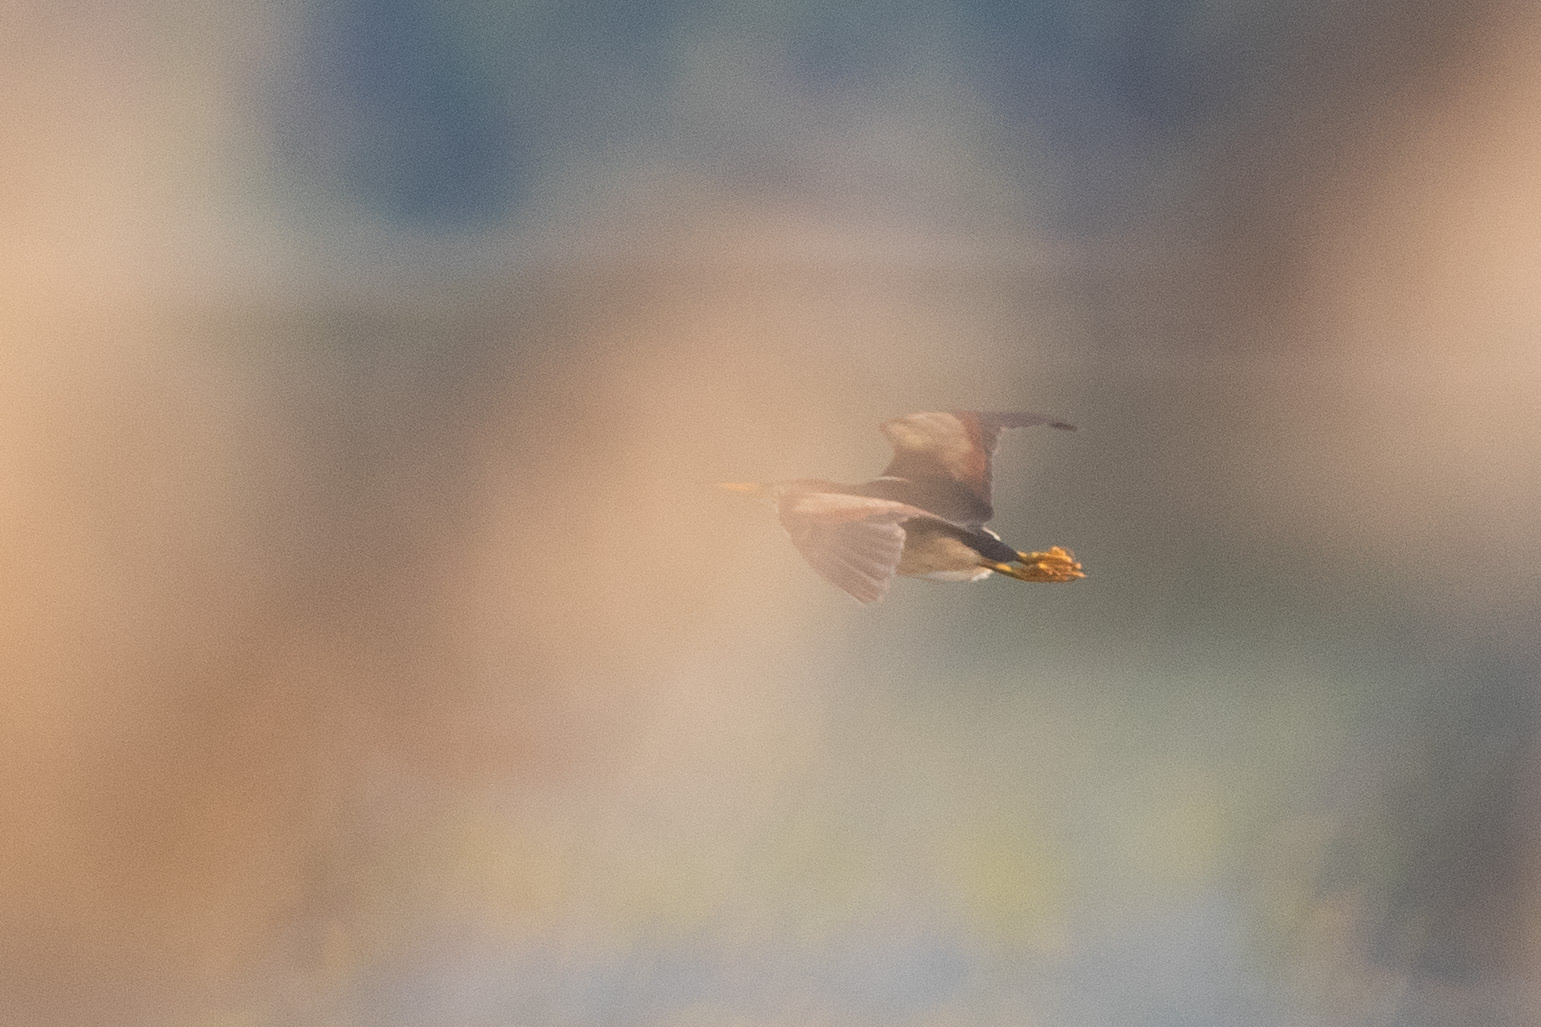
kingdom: Animalia
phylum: Chordata
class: Aves
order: Pelecaniformes
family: Ardeidae
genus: Ixobrychus
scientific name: Ixobrychus exilis
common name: Least bittern
